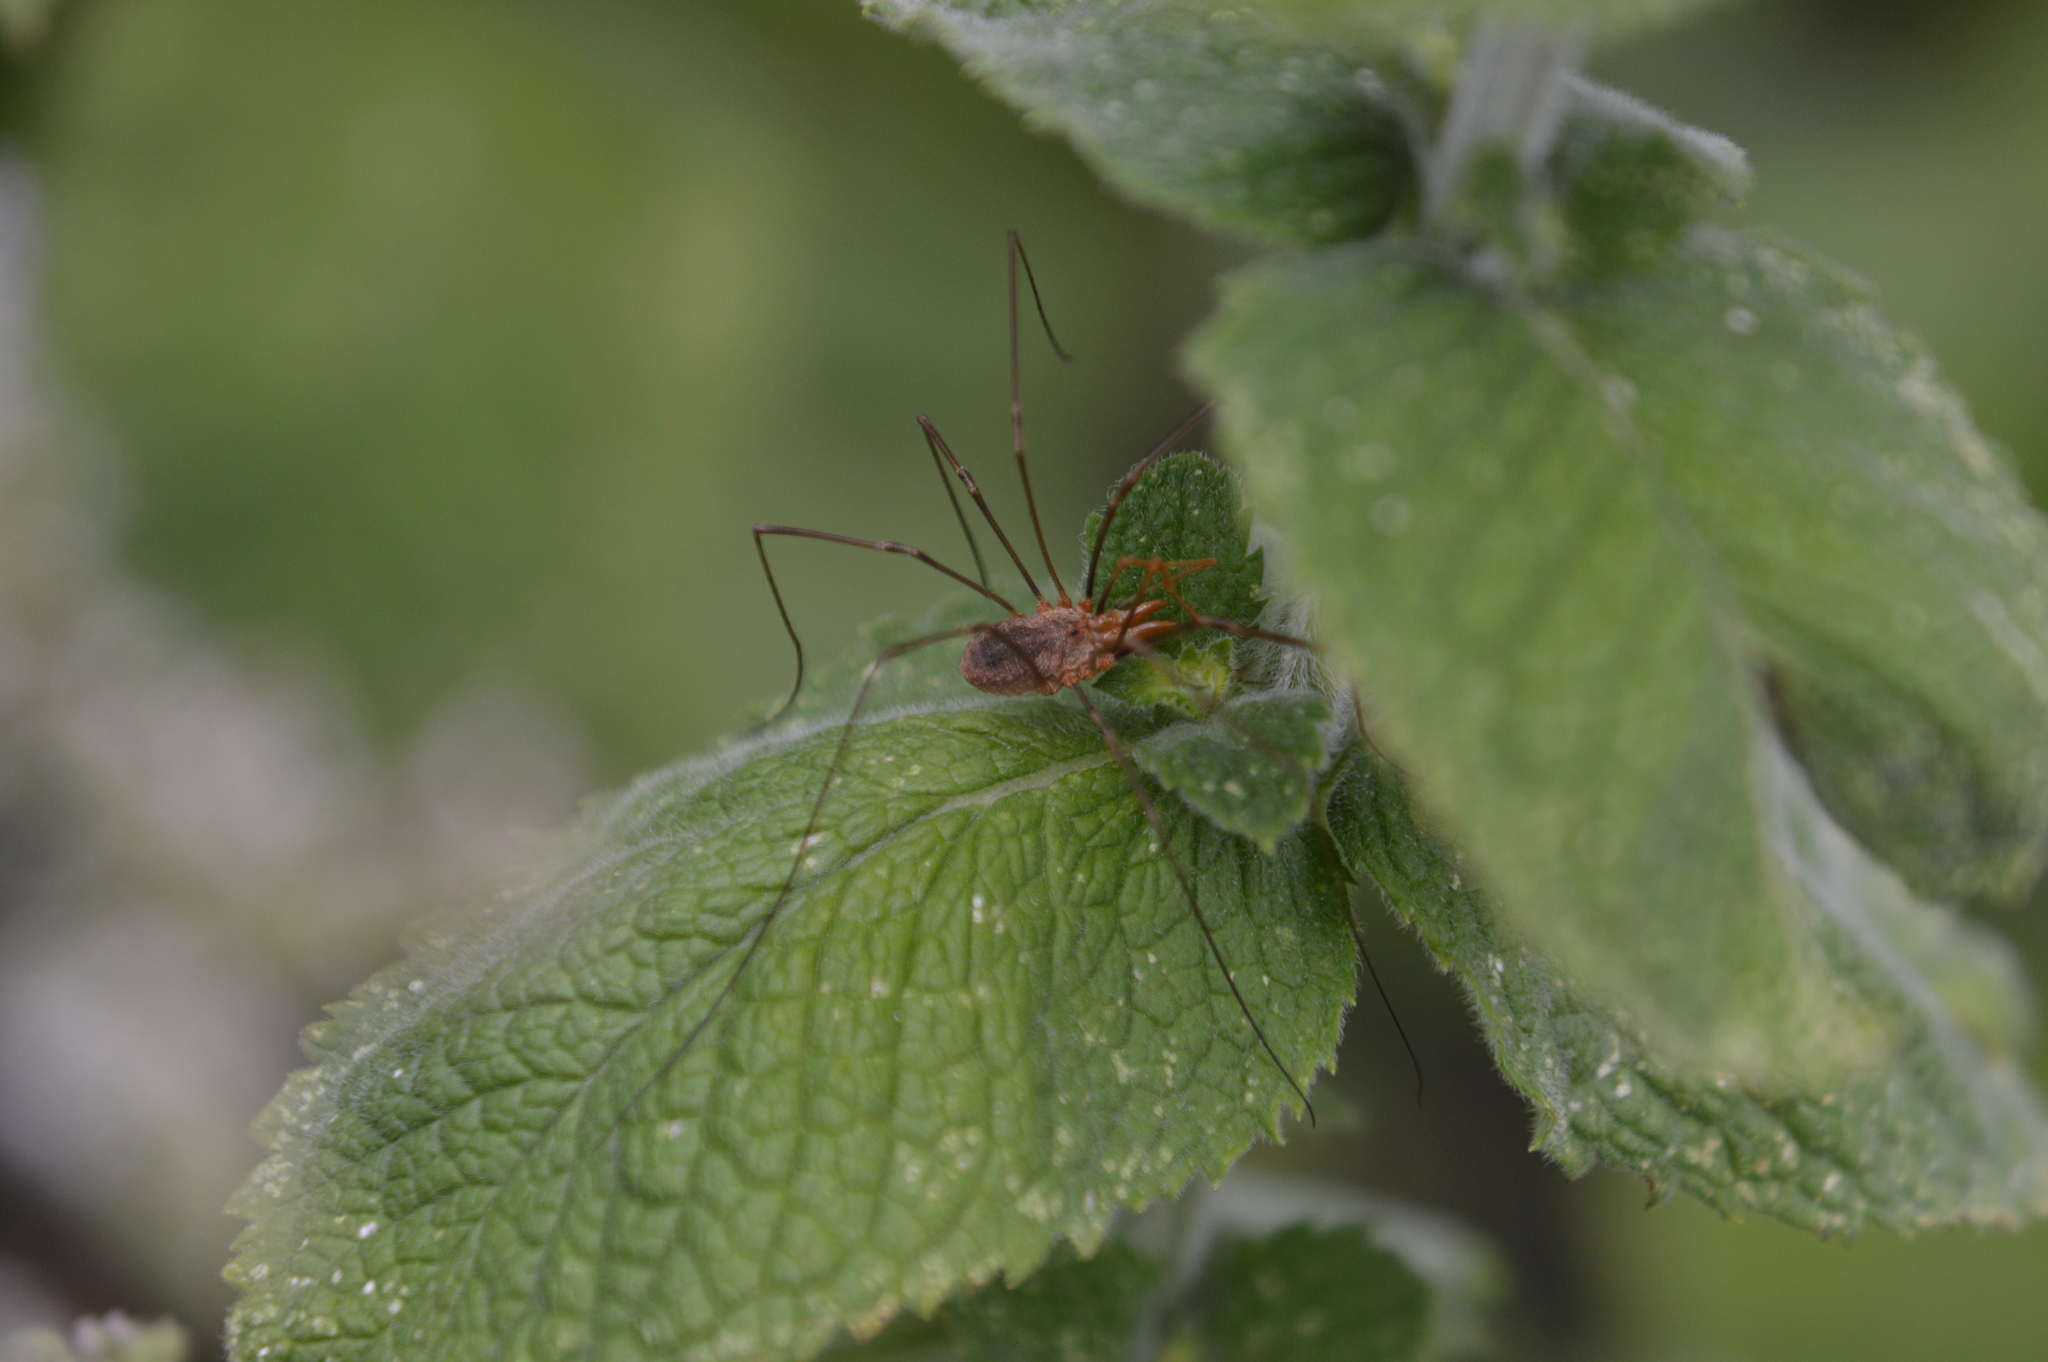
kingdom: Animalia
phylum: Arthropoda
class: Arachnida
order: Opiliones
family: Phalangiidae
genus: Phalangium
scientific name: Phalangium opilio
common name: Daddy longleg
